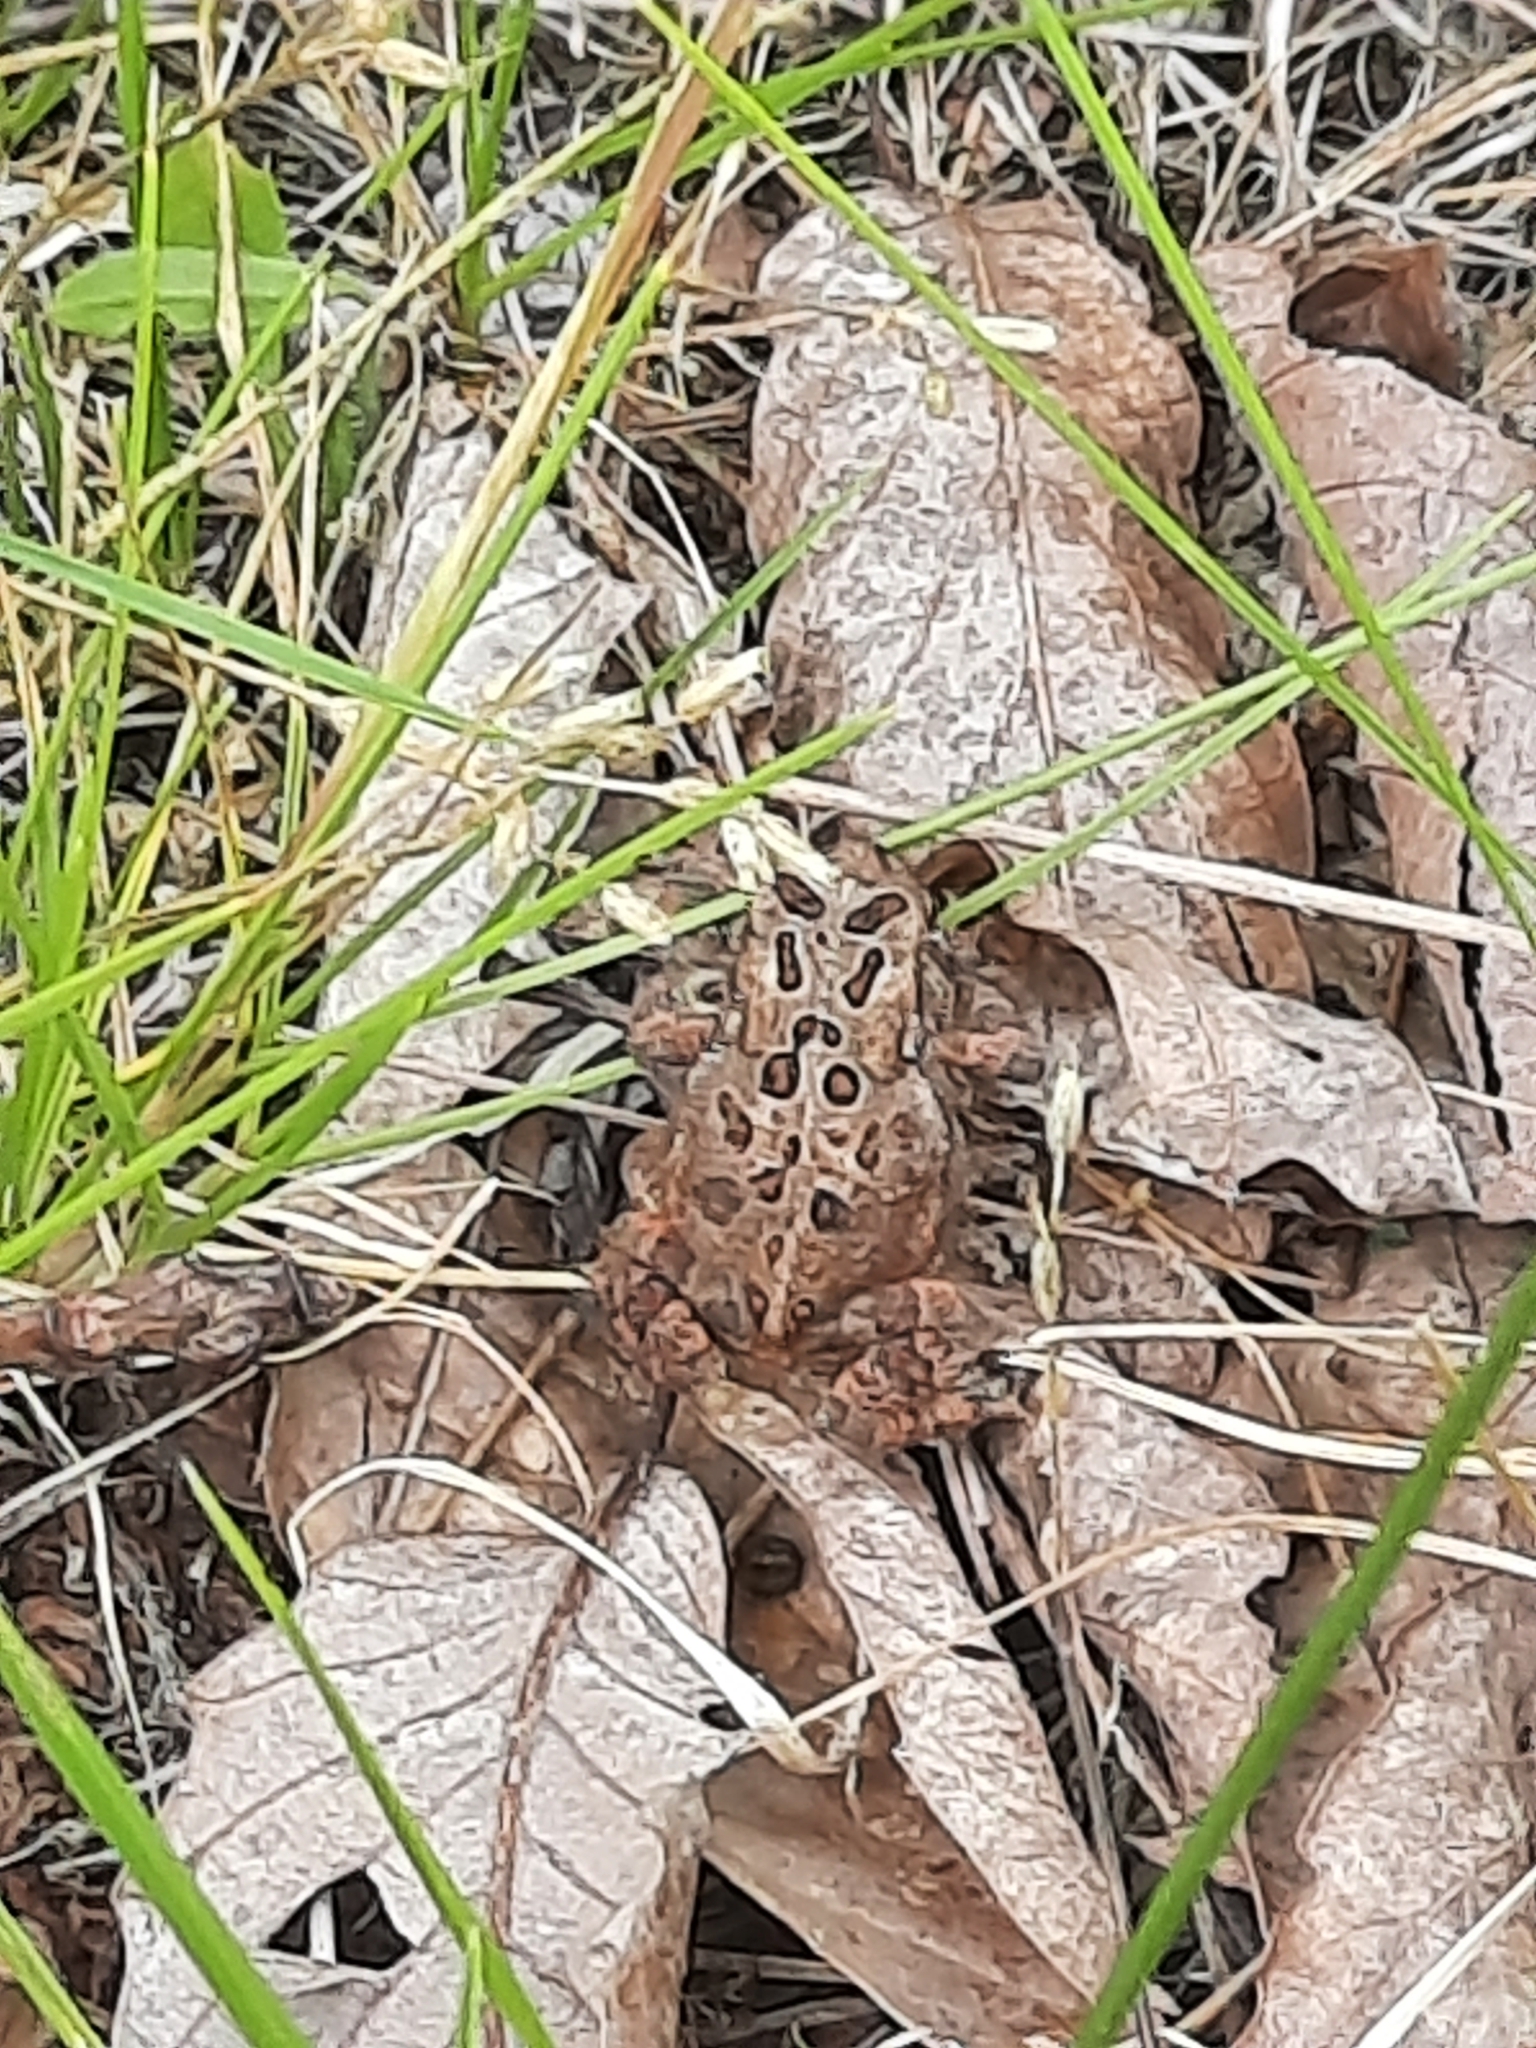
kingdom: Animalia
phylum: Chordata
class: Amphibia
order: Anura
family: Bufonidae
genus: Anaxyrus
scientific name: Anaxyrus americanus
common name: American toad
